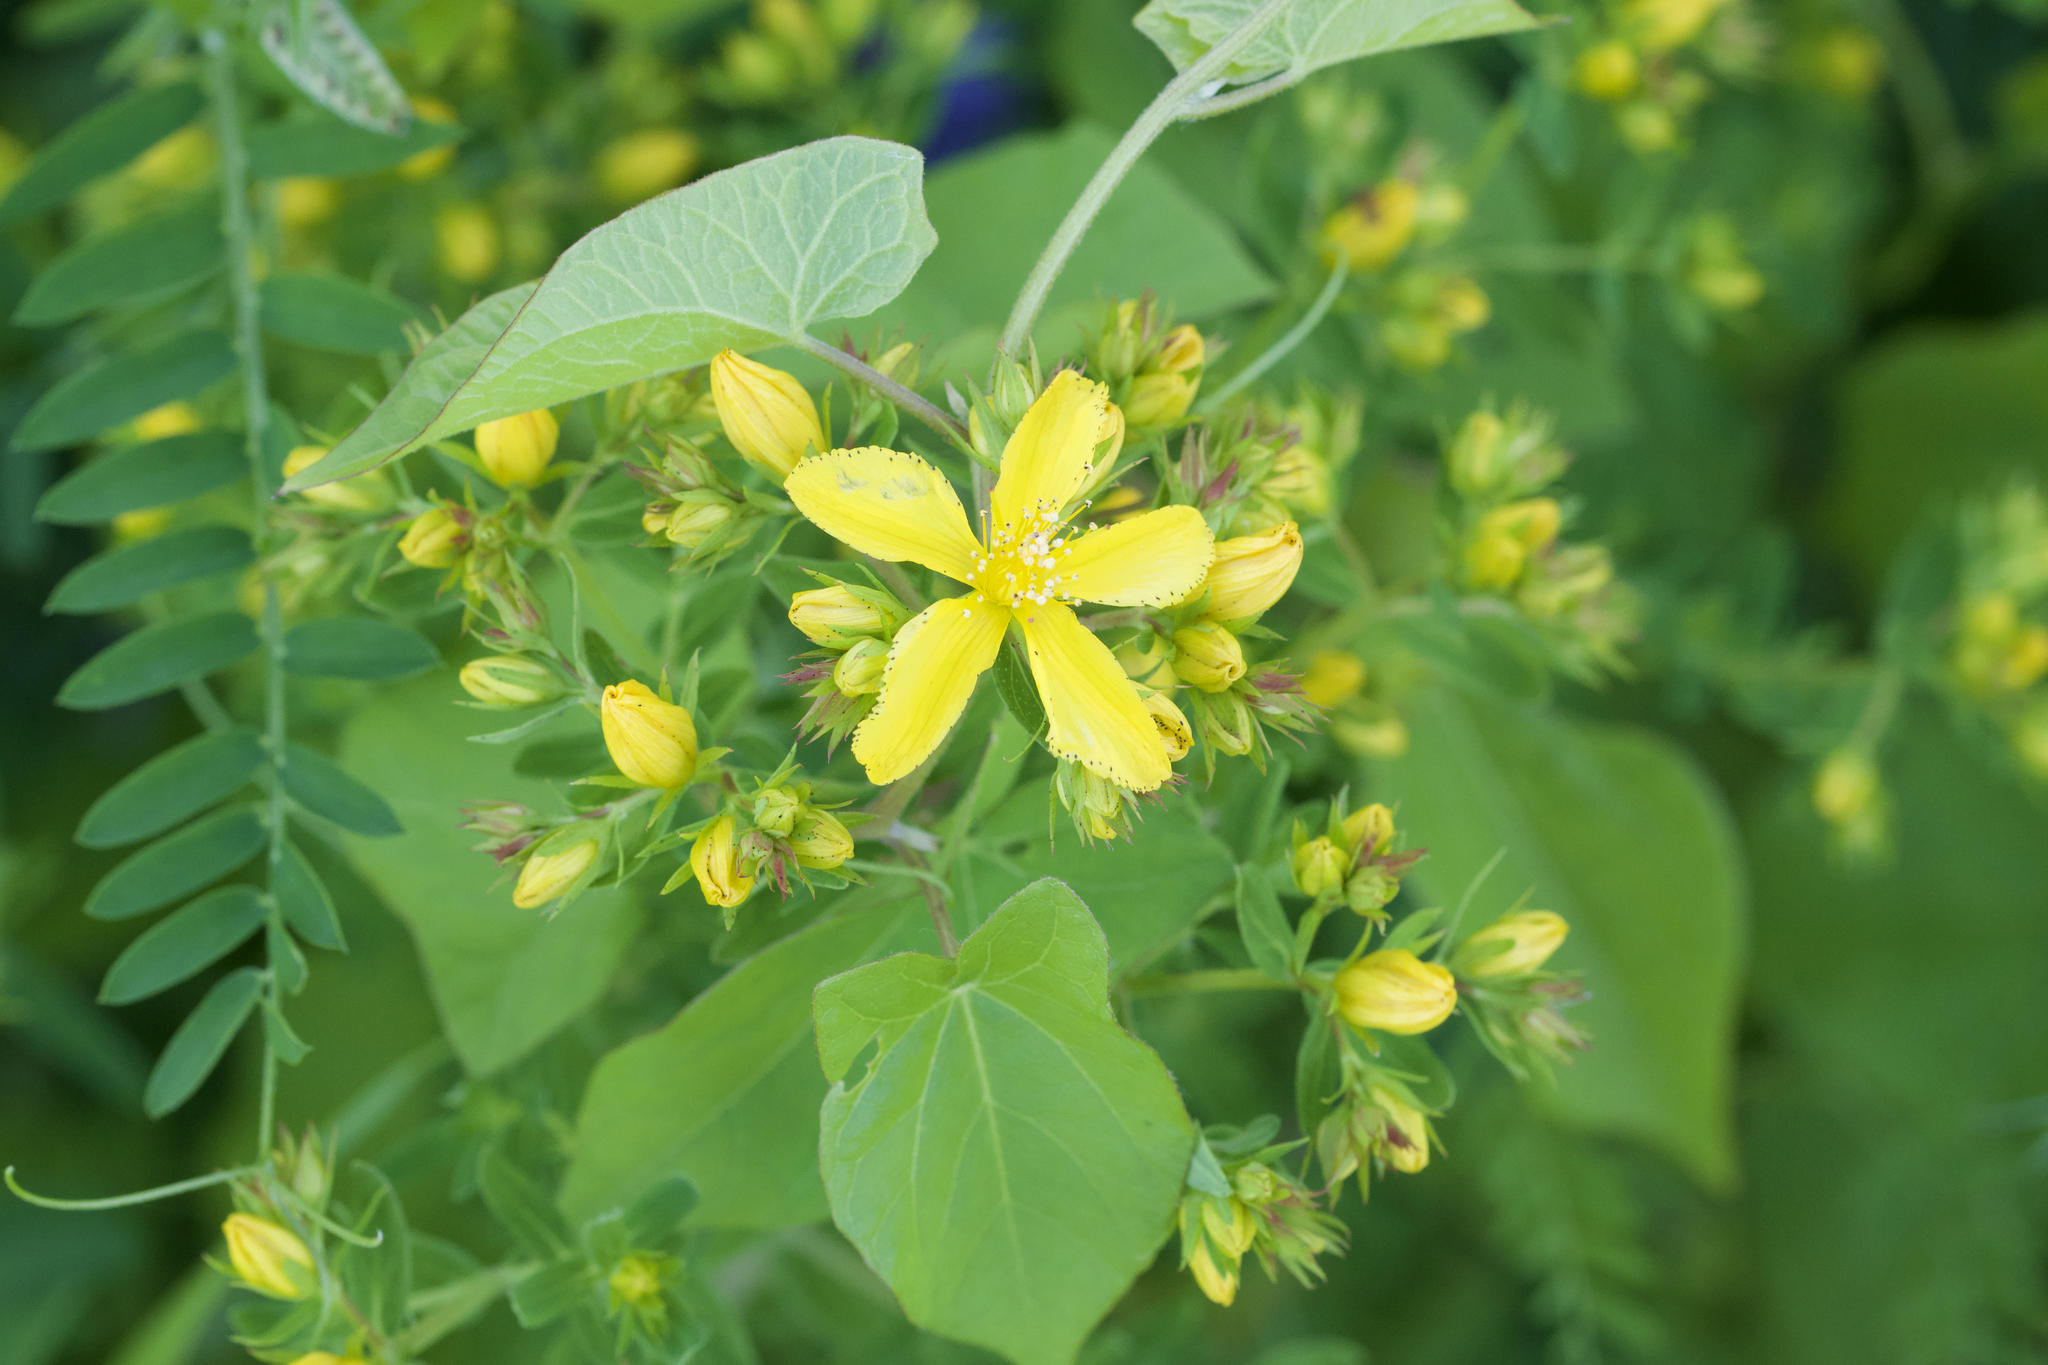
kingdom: Plantae
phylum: Tracheophyta
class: Magnoliopsida
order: Malpighiales
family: Hypericaceae
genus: Hypericum
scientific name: Hypericum perforatum
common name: Common st. johnswort
